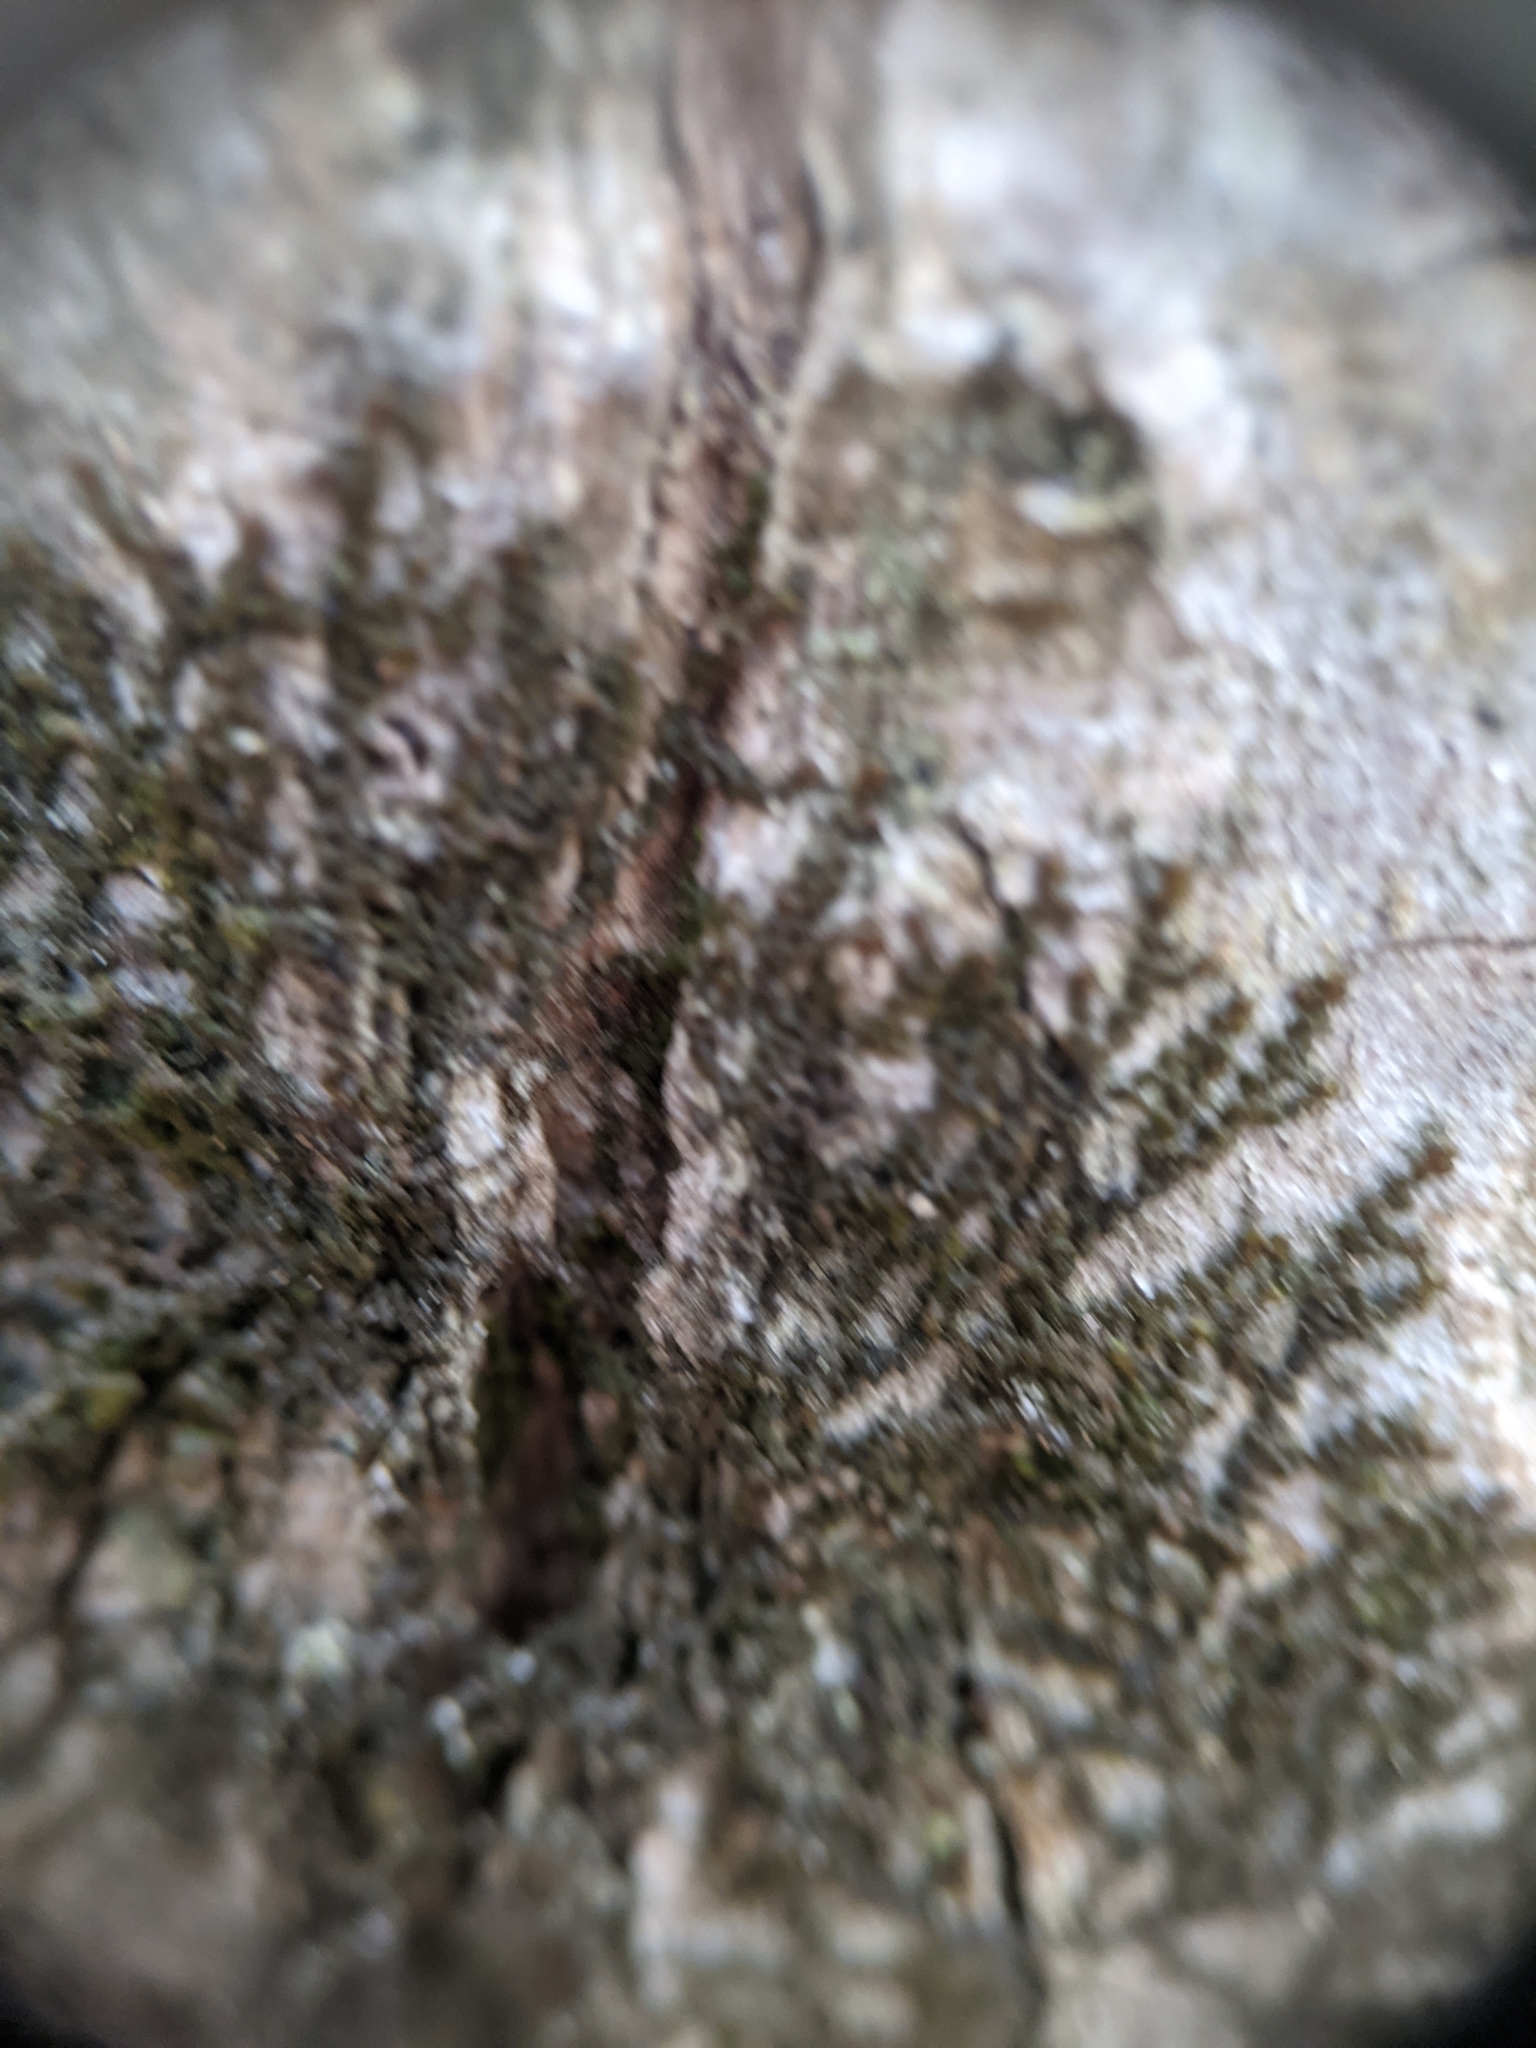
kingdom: Plantae
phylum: Marchantiophyta
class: Jungermanniopsida
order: Porellales
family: Frullaniaceae
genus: Frullania
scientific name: Frullania eboracensis
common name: New york scalewort
